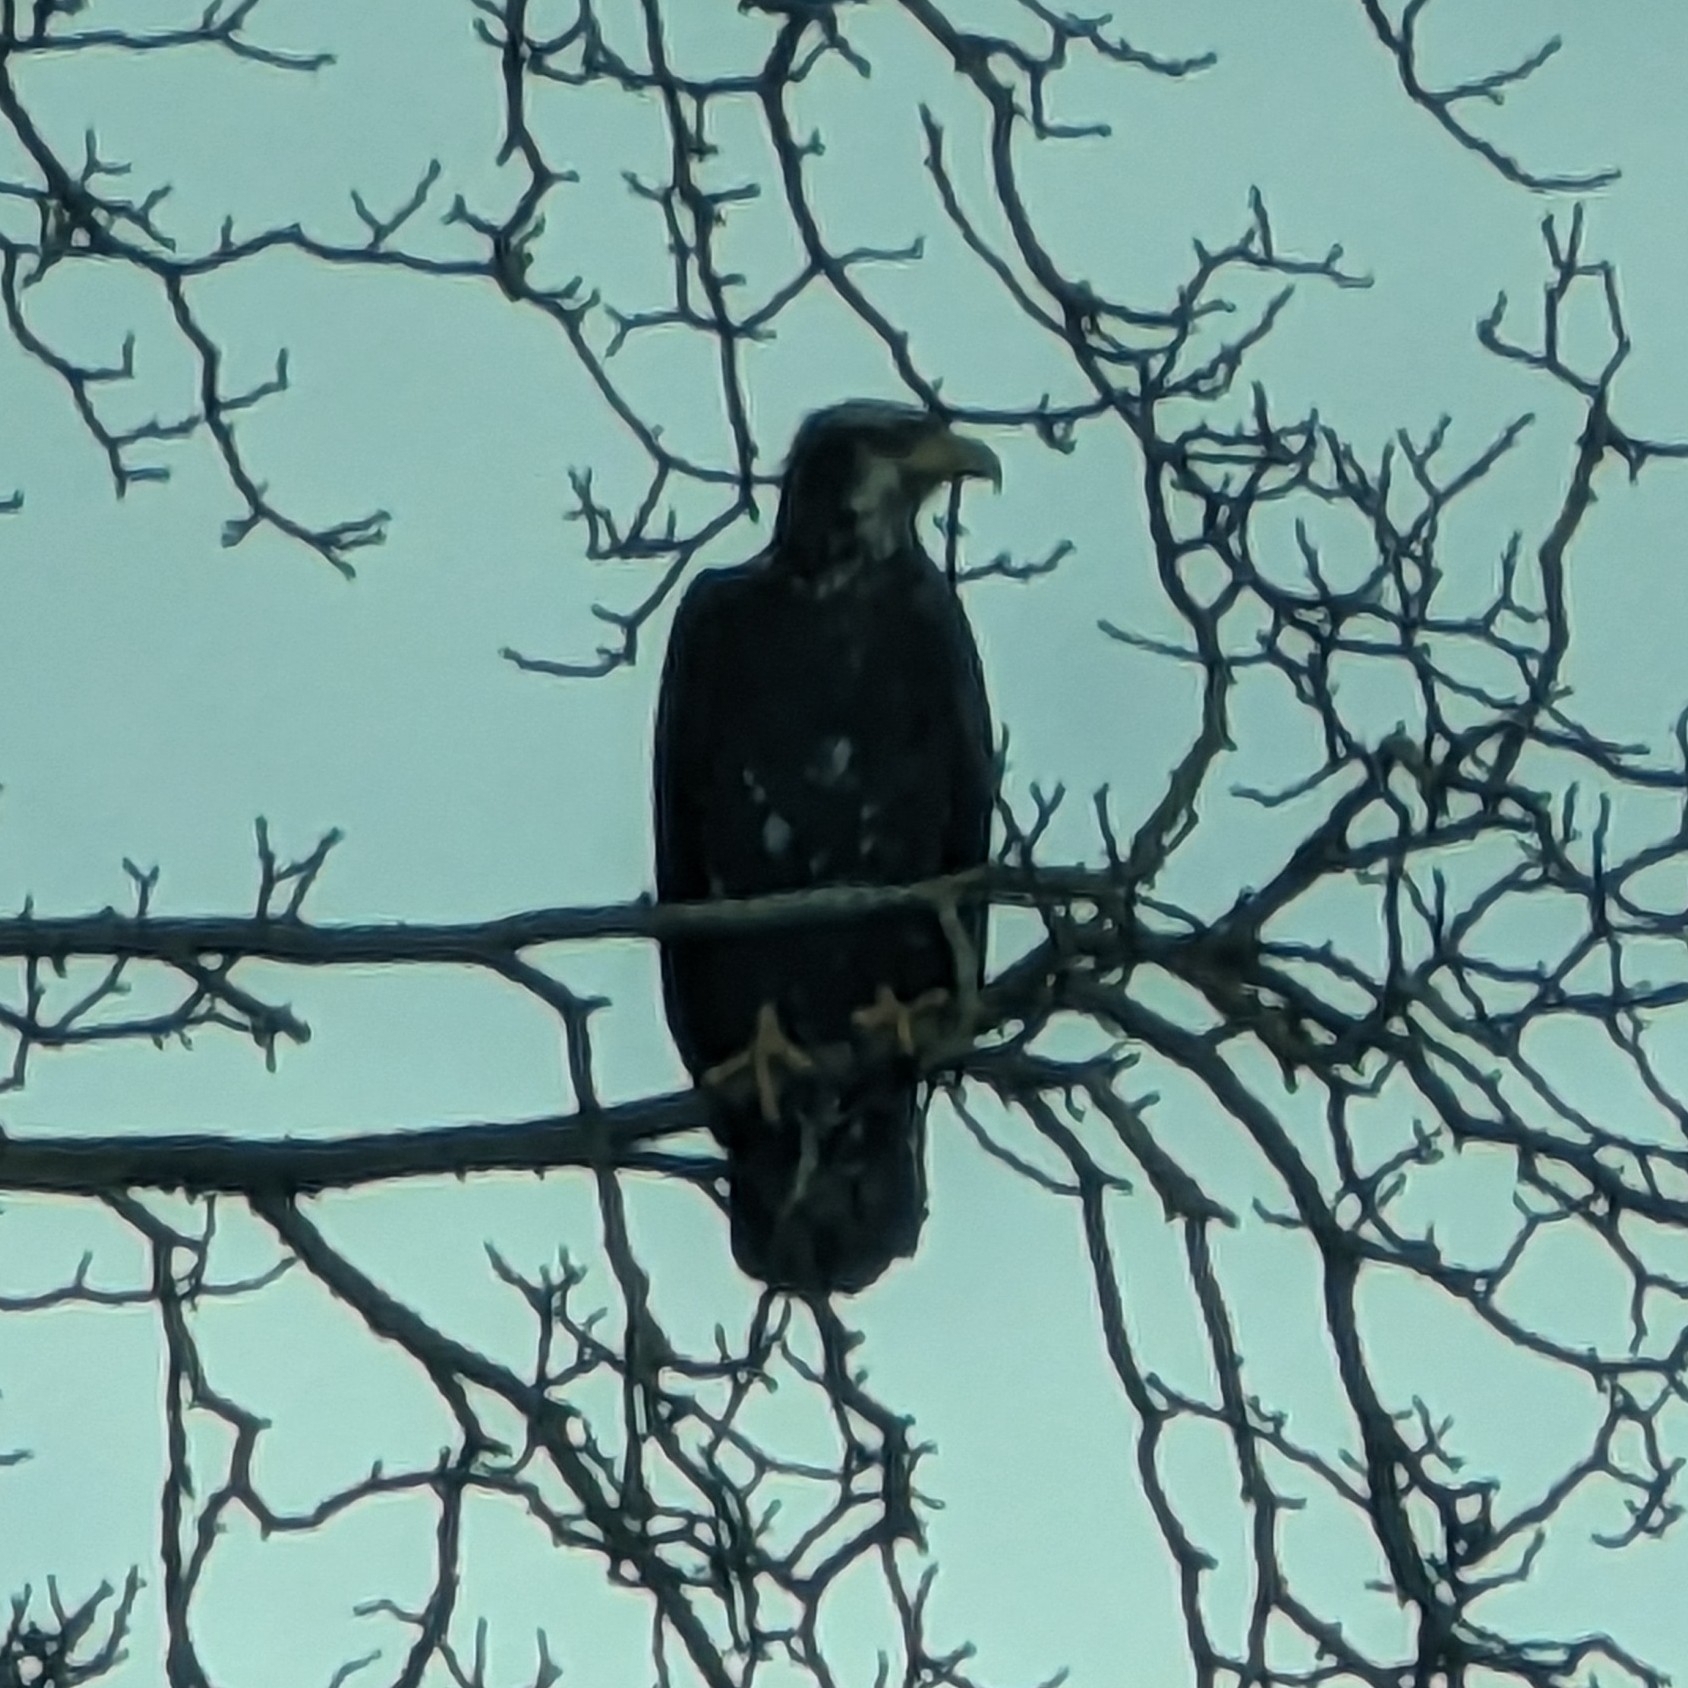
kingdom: Animalia
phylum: Chordata
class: Aves
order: Accipitriformes
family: Accipitridae
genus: Haliaeetus
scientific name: Haliaeetus leucocephalus
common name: Bald eagle
